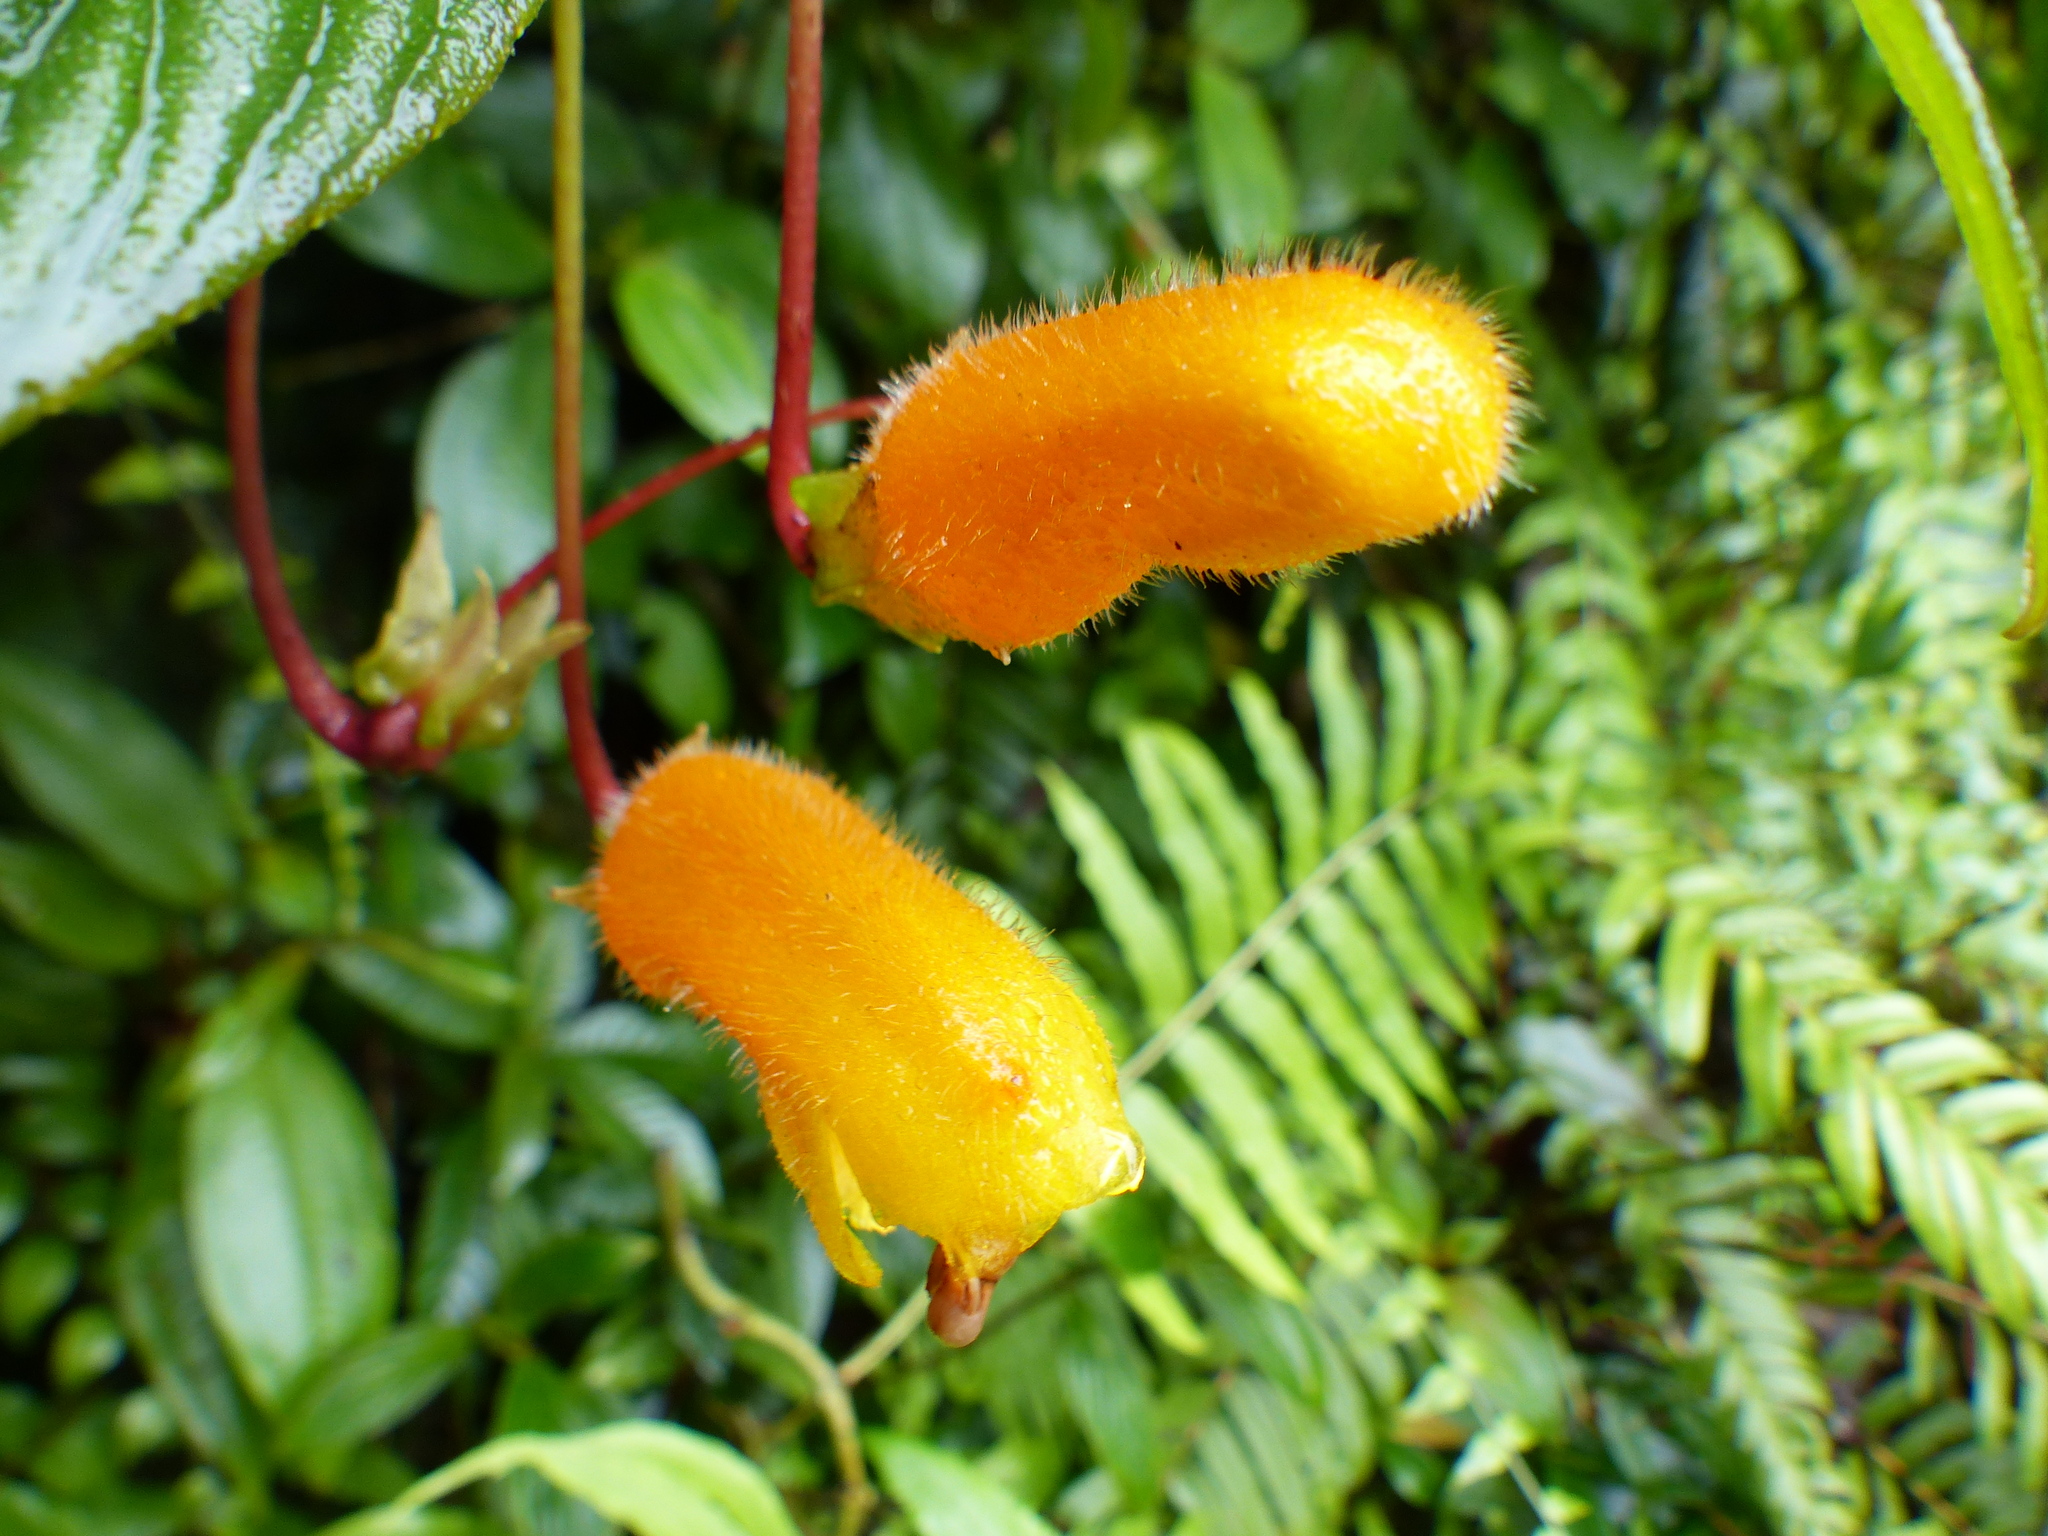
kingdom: Plantae
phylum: Tracheophyta
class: Magnoliopsida
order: Lamiales
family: Gesneriaceae
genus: Columnea
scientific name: Columnea strigosa
